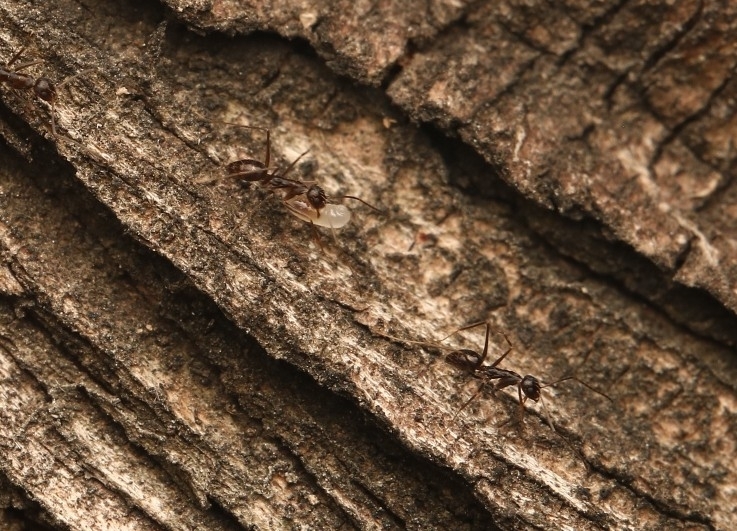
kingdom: Animalia
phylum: Arthropoda
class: Insecta
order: Hymenoptera
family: Formicidae
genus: Paratrechina
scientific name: Paratrechina longicornis
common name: Longhorned crazy ant
